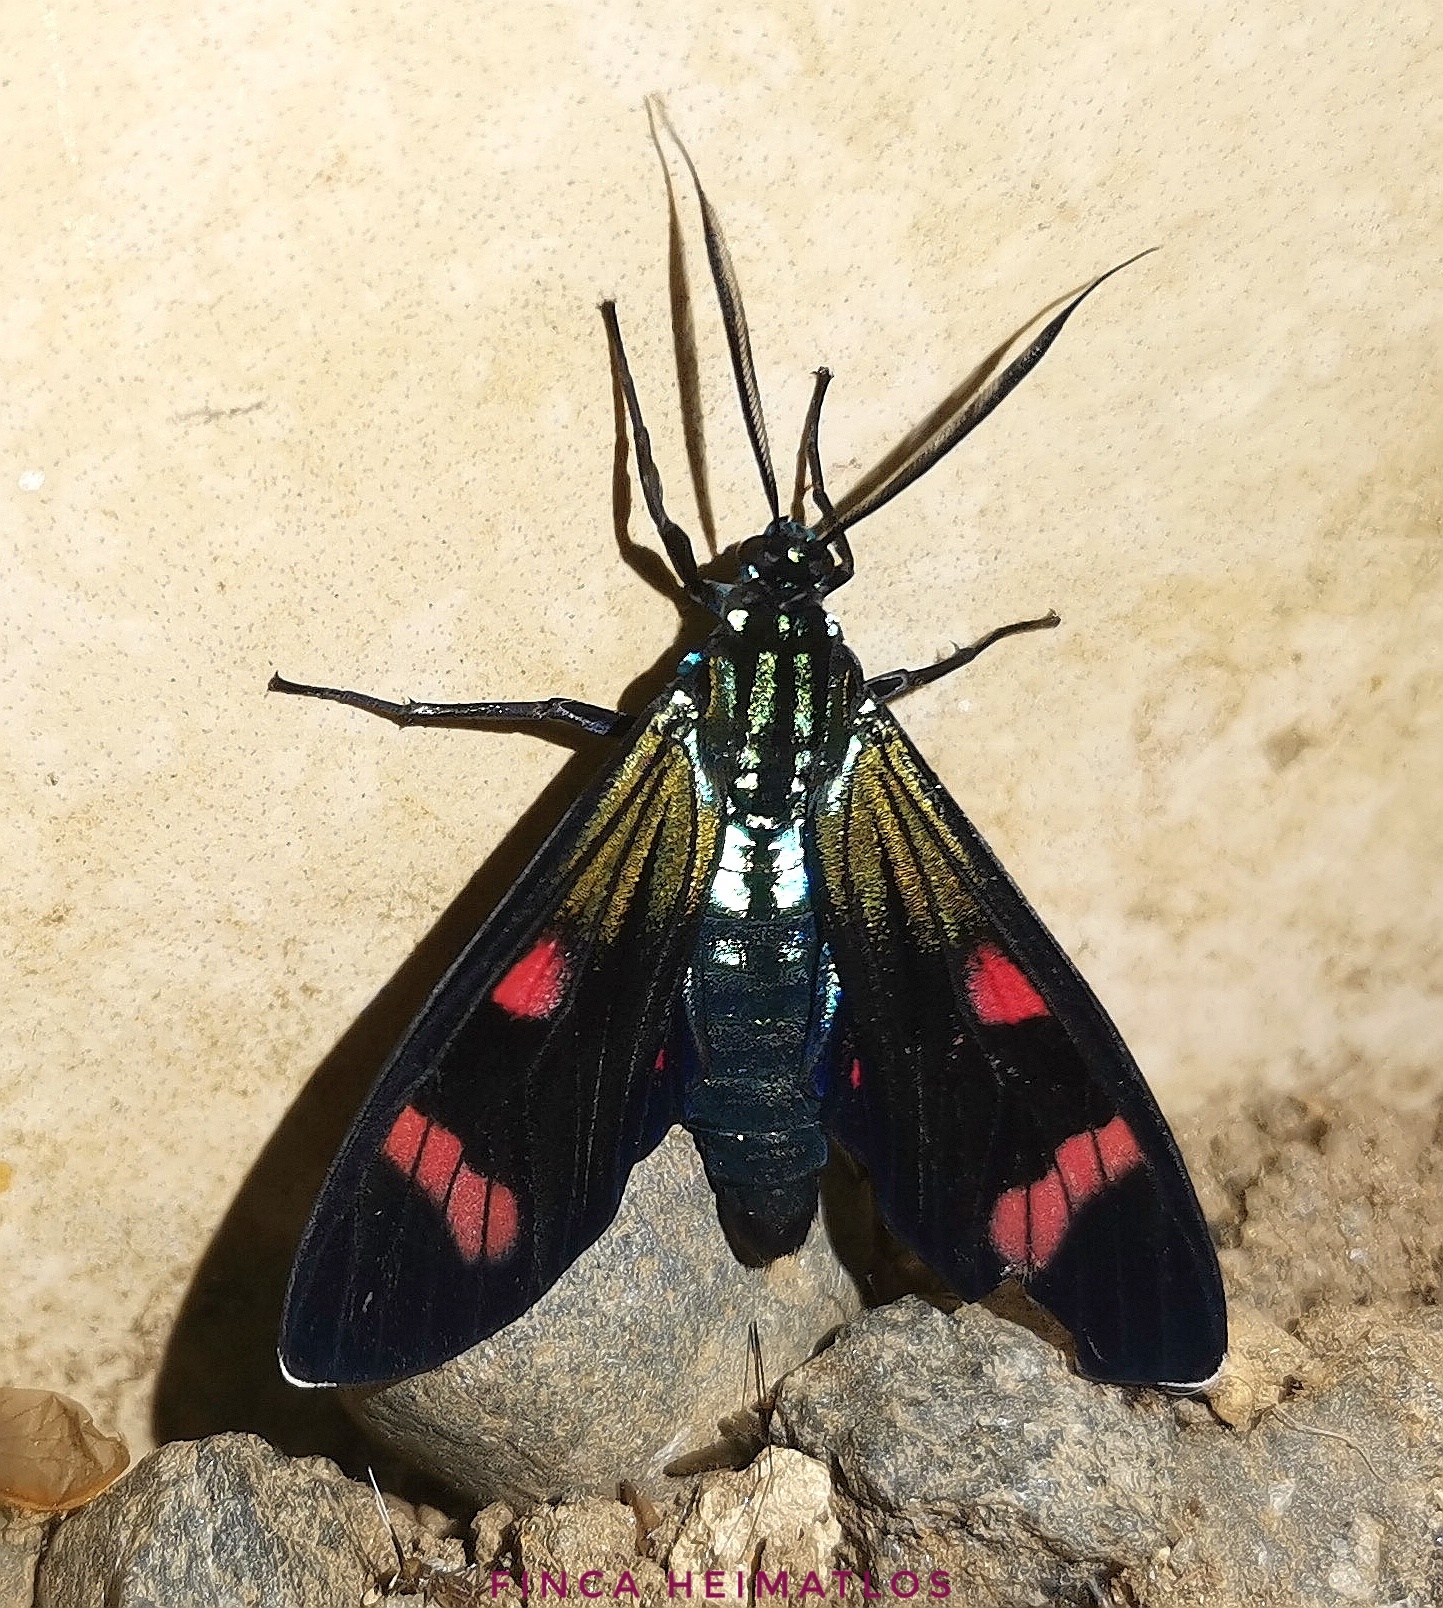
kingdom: Animalia
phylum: Arthropoda
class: Insecta
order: Lepidoptera
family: Erebidae
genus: Diospage
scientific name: Diospage splendens
